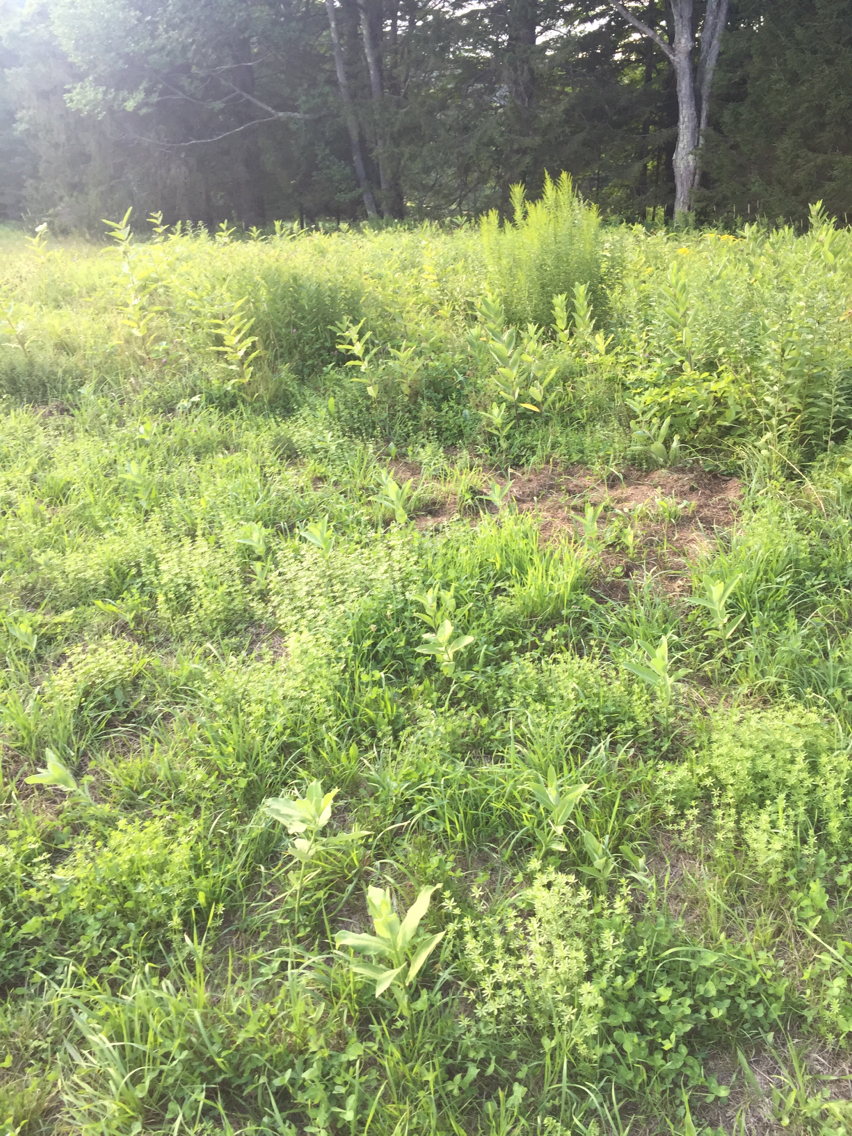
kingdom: Plantae
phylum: Tracheophyta
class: Magnoliopsida
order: Gentianales
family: Apocynaceae
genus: Asclepias
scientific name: Asclepias syriaca
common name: Common milkweed
